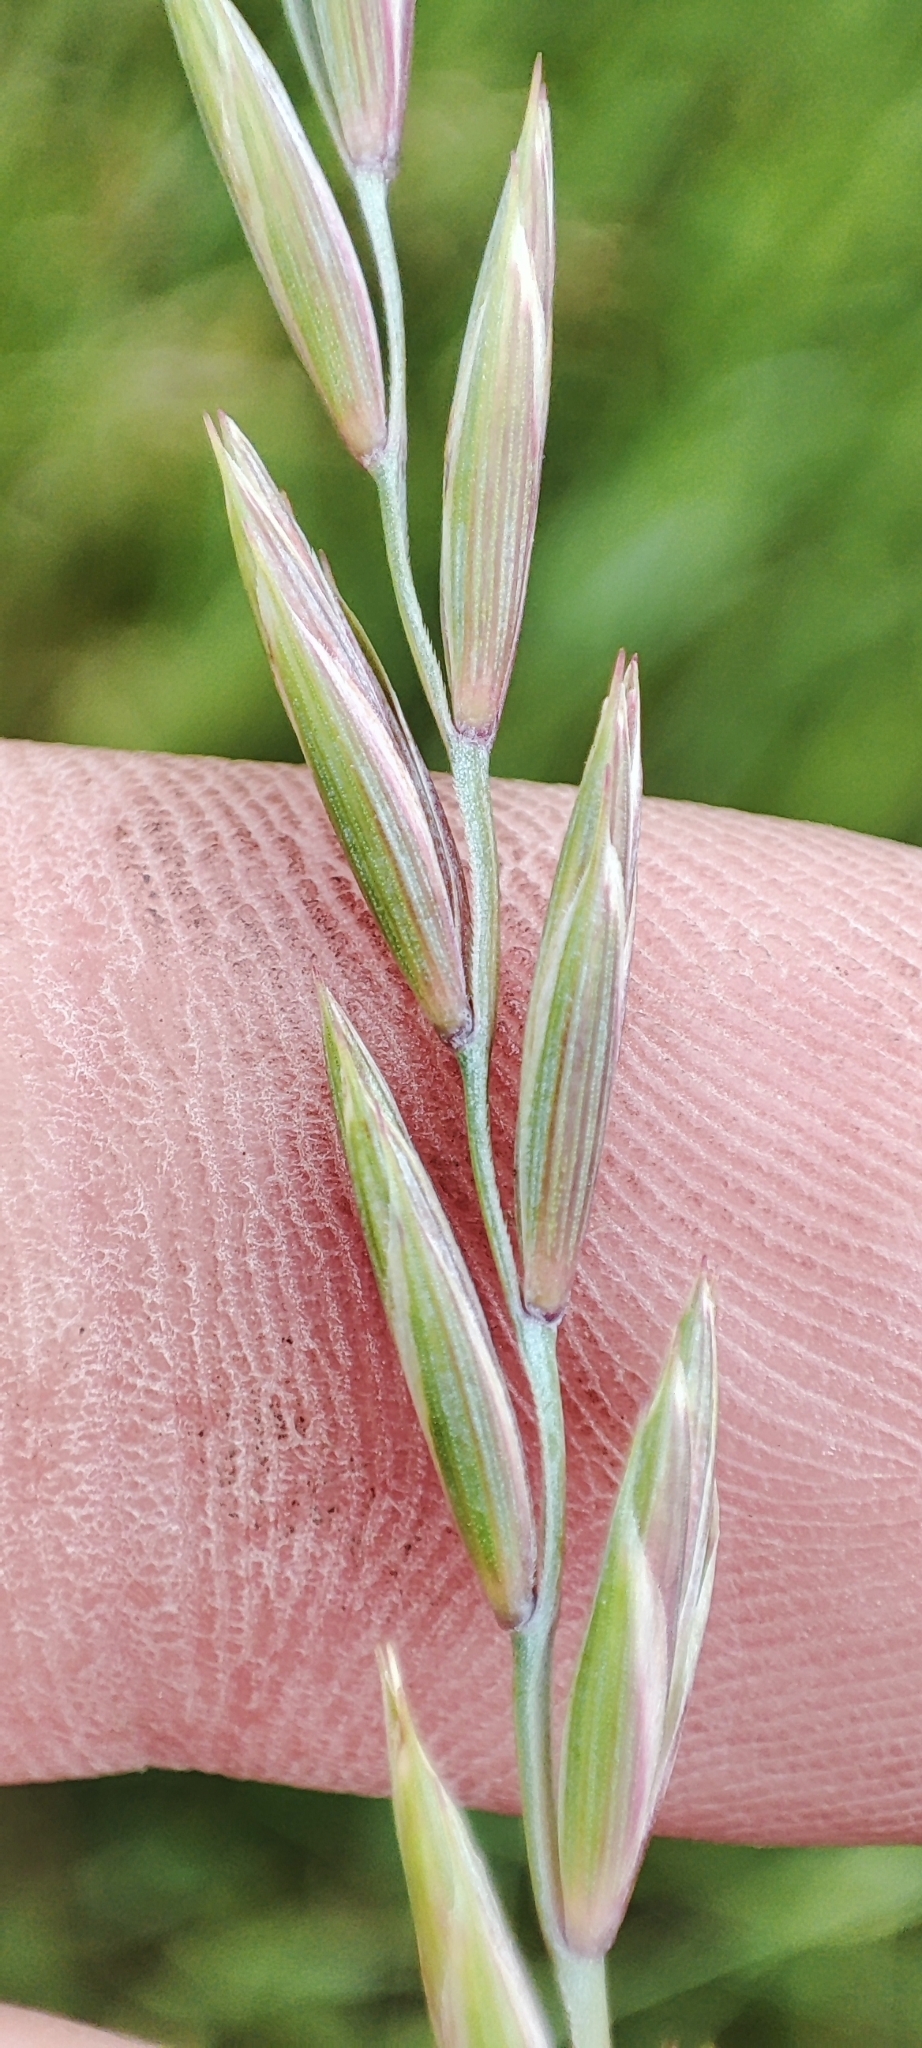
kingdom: Plantae
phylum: Tracheophyta
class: Liliopsida
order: Poales
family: Poaceae
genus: Elymus
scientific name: Elymus repens
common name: Quackgrass
